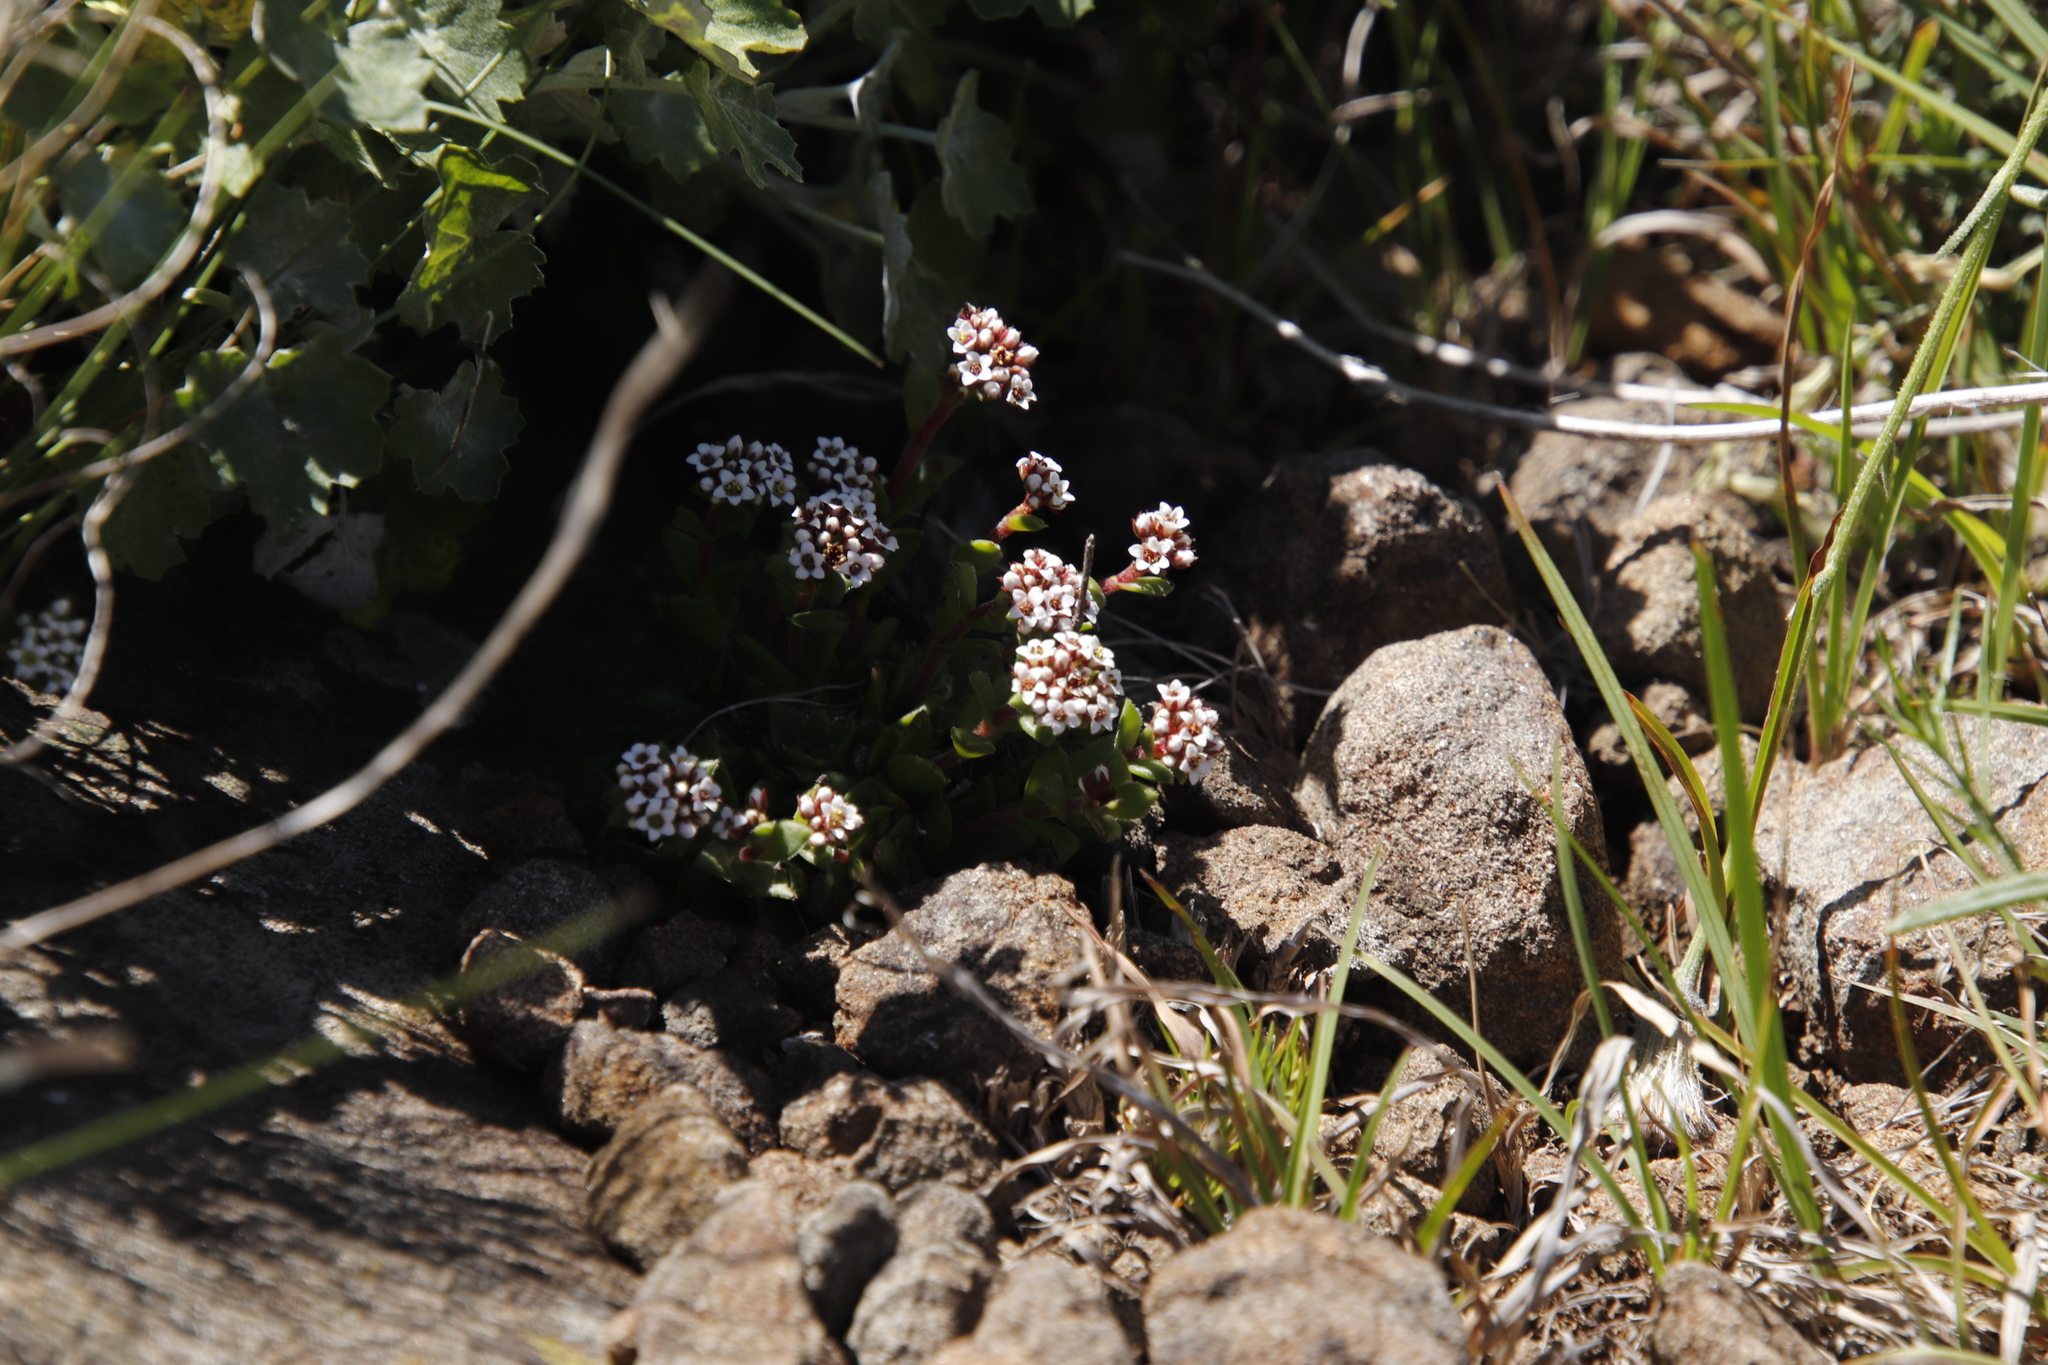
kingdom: Plantae
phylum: Tracheophyta
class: Magnoliopsida
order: Saxifragales
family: Crassulaceae
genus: Crassula
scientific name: Crassula setulosa
